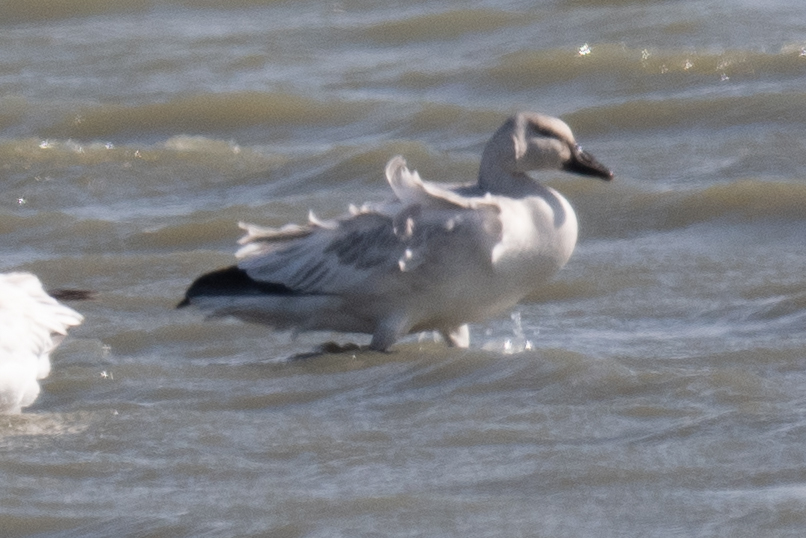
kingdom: Animalia
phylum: Chordata
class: Aves
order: Anseriformes
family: Anatidae
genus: Anser
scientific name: Anser caerulescens
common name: Snow goose
